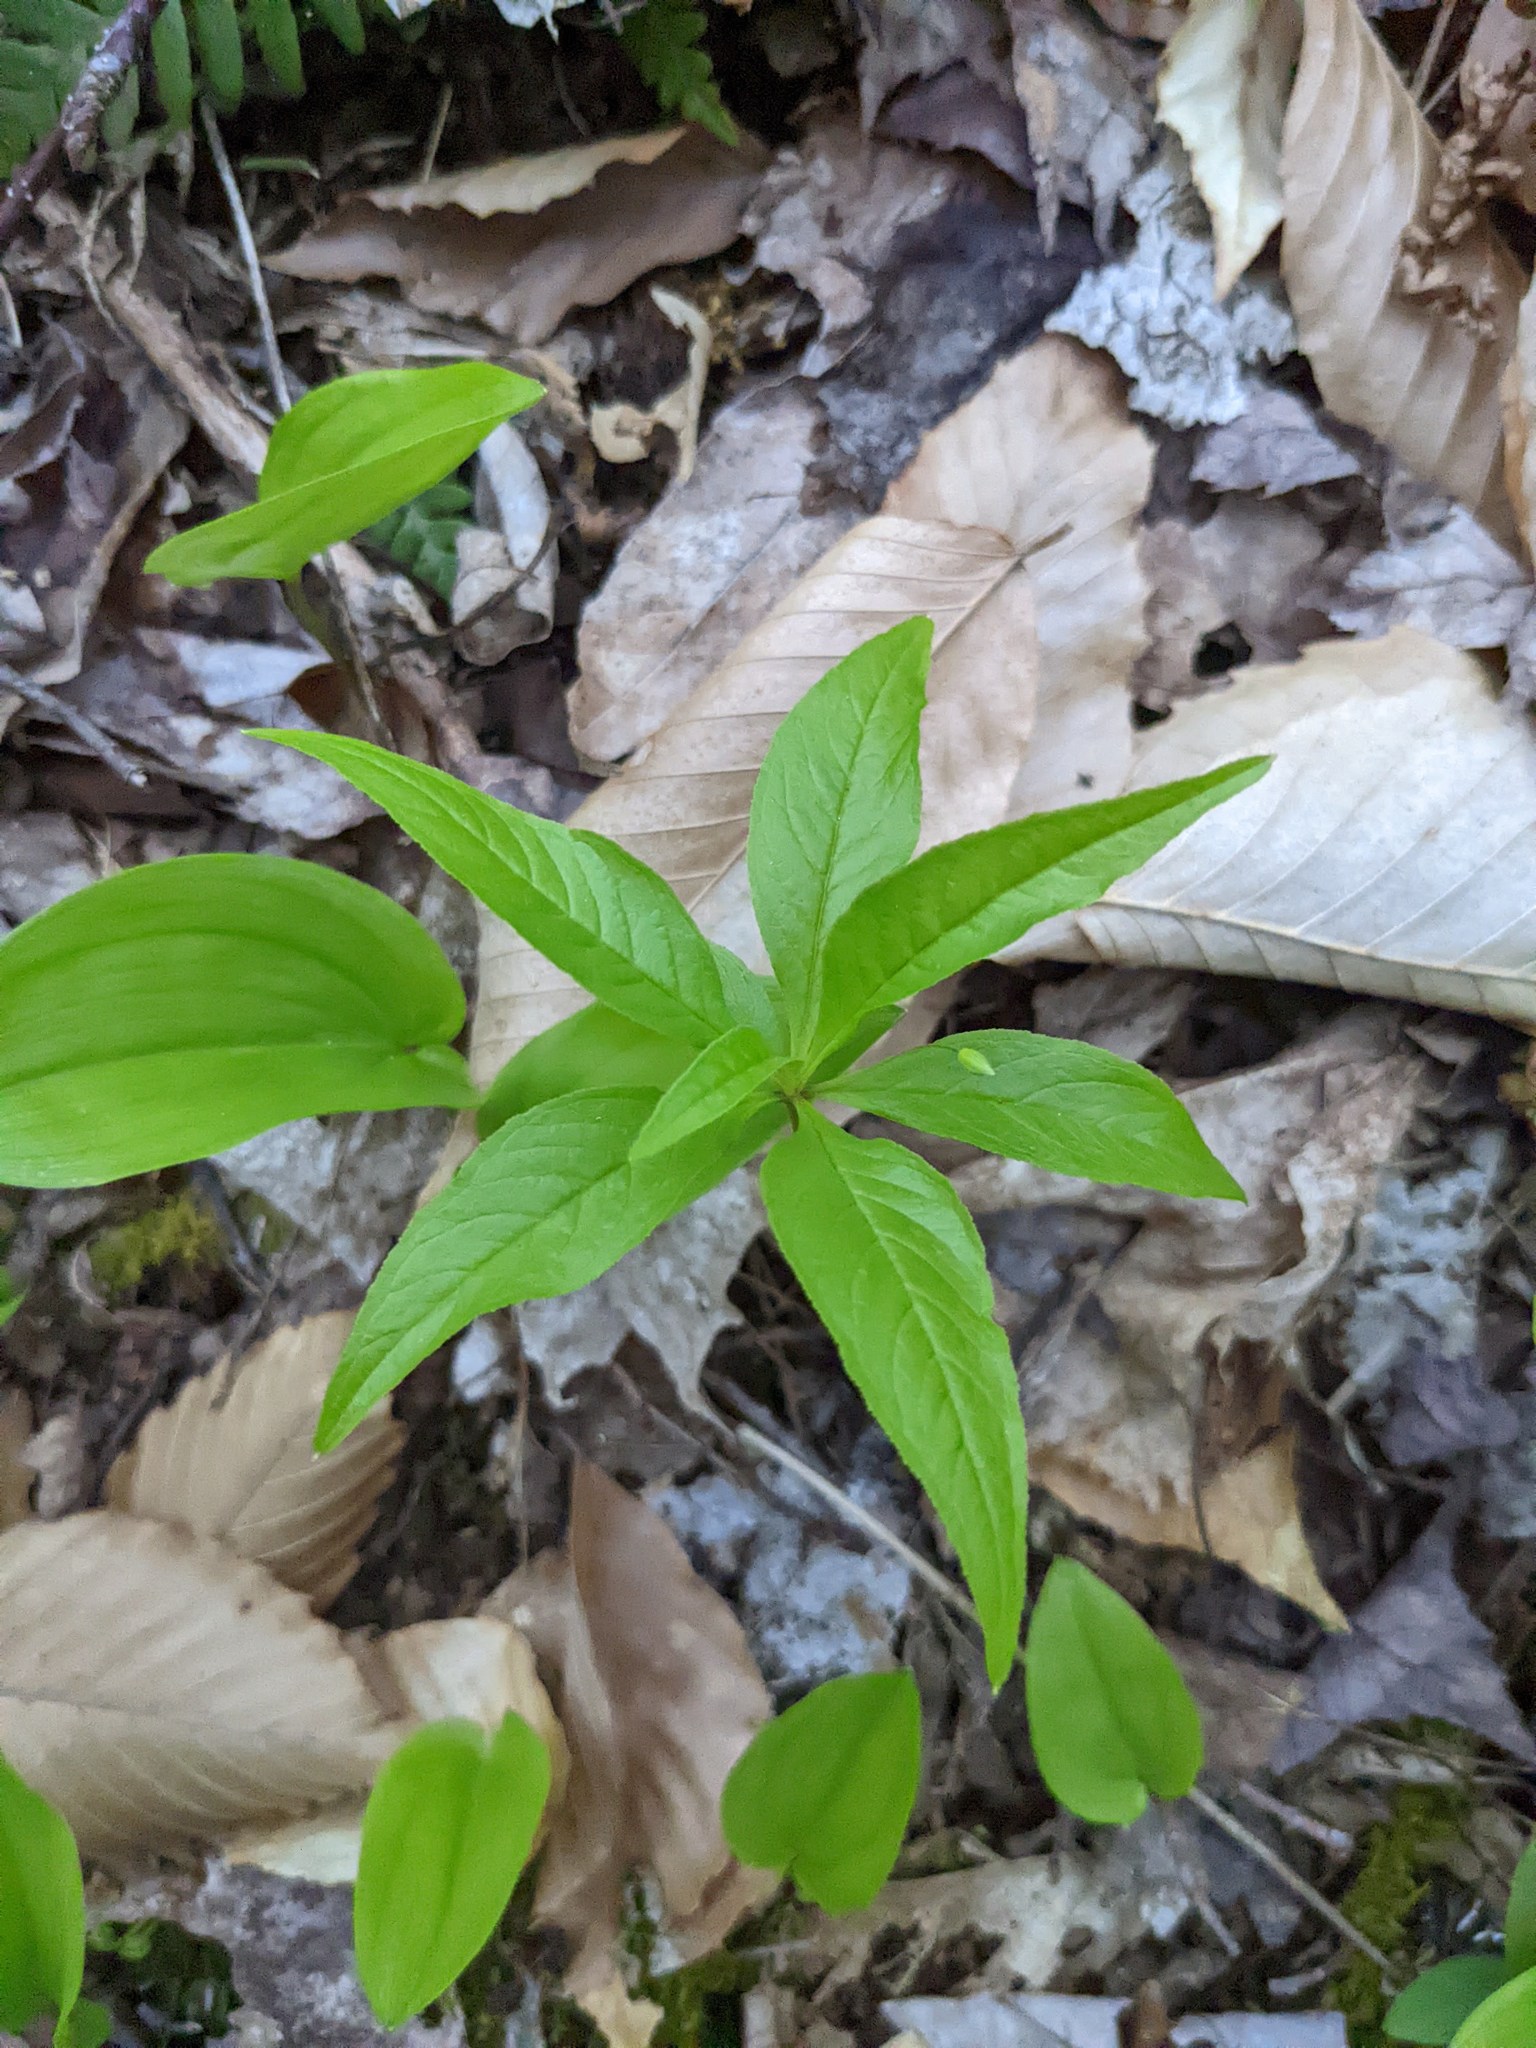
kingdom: Plantae
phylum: Tracheophyta
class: Magnoliopsida
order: Ericales
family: Primulaceae
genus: Lysimachia
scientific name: Lysimachia borealis
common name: American starflower
